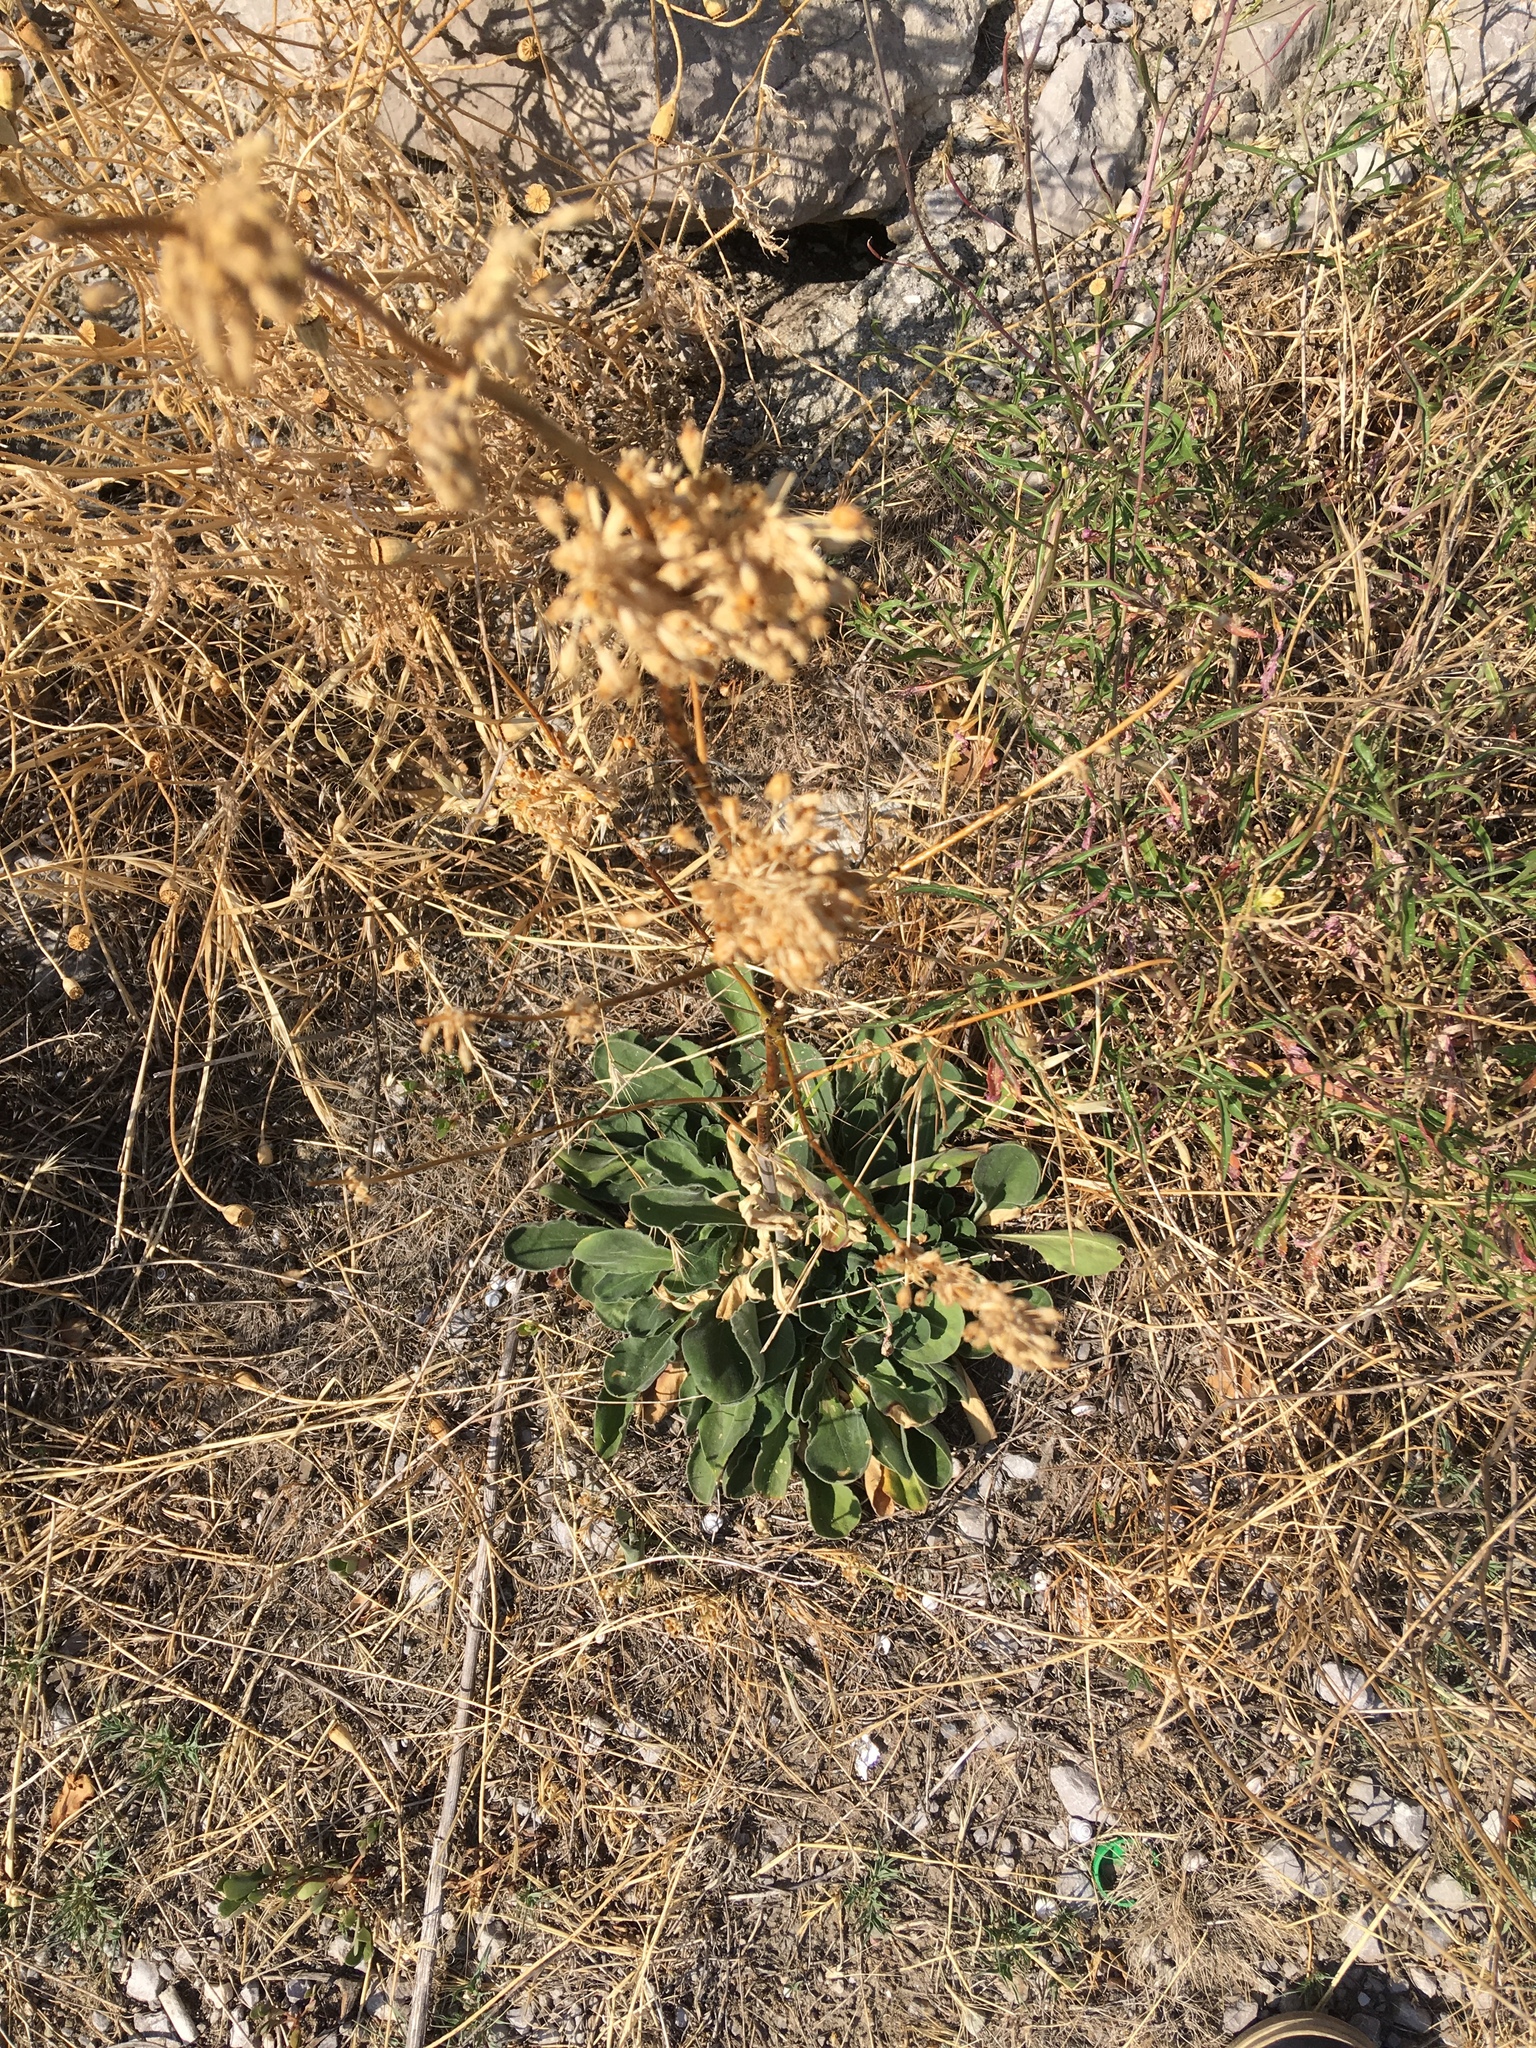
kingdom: Plantae
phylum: Tracheophyta
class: Magnoliopsida
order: Caryophyllales
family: Caryophyllaceae
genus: Silene
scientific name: Silene densiflora
